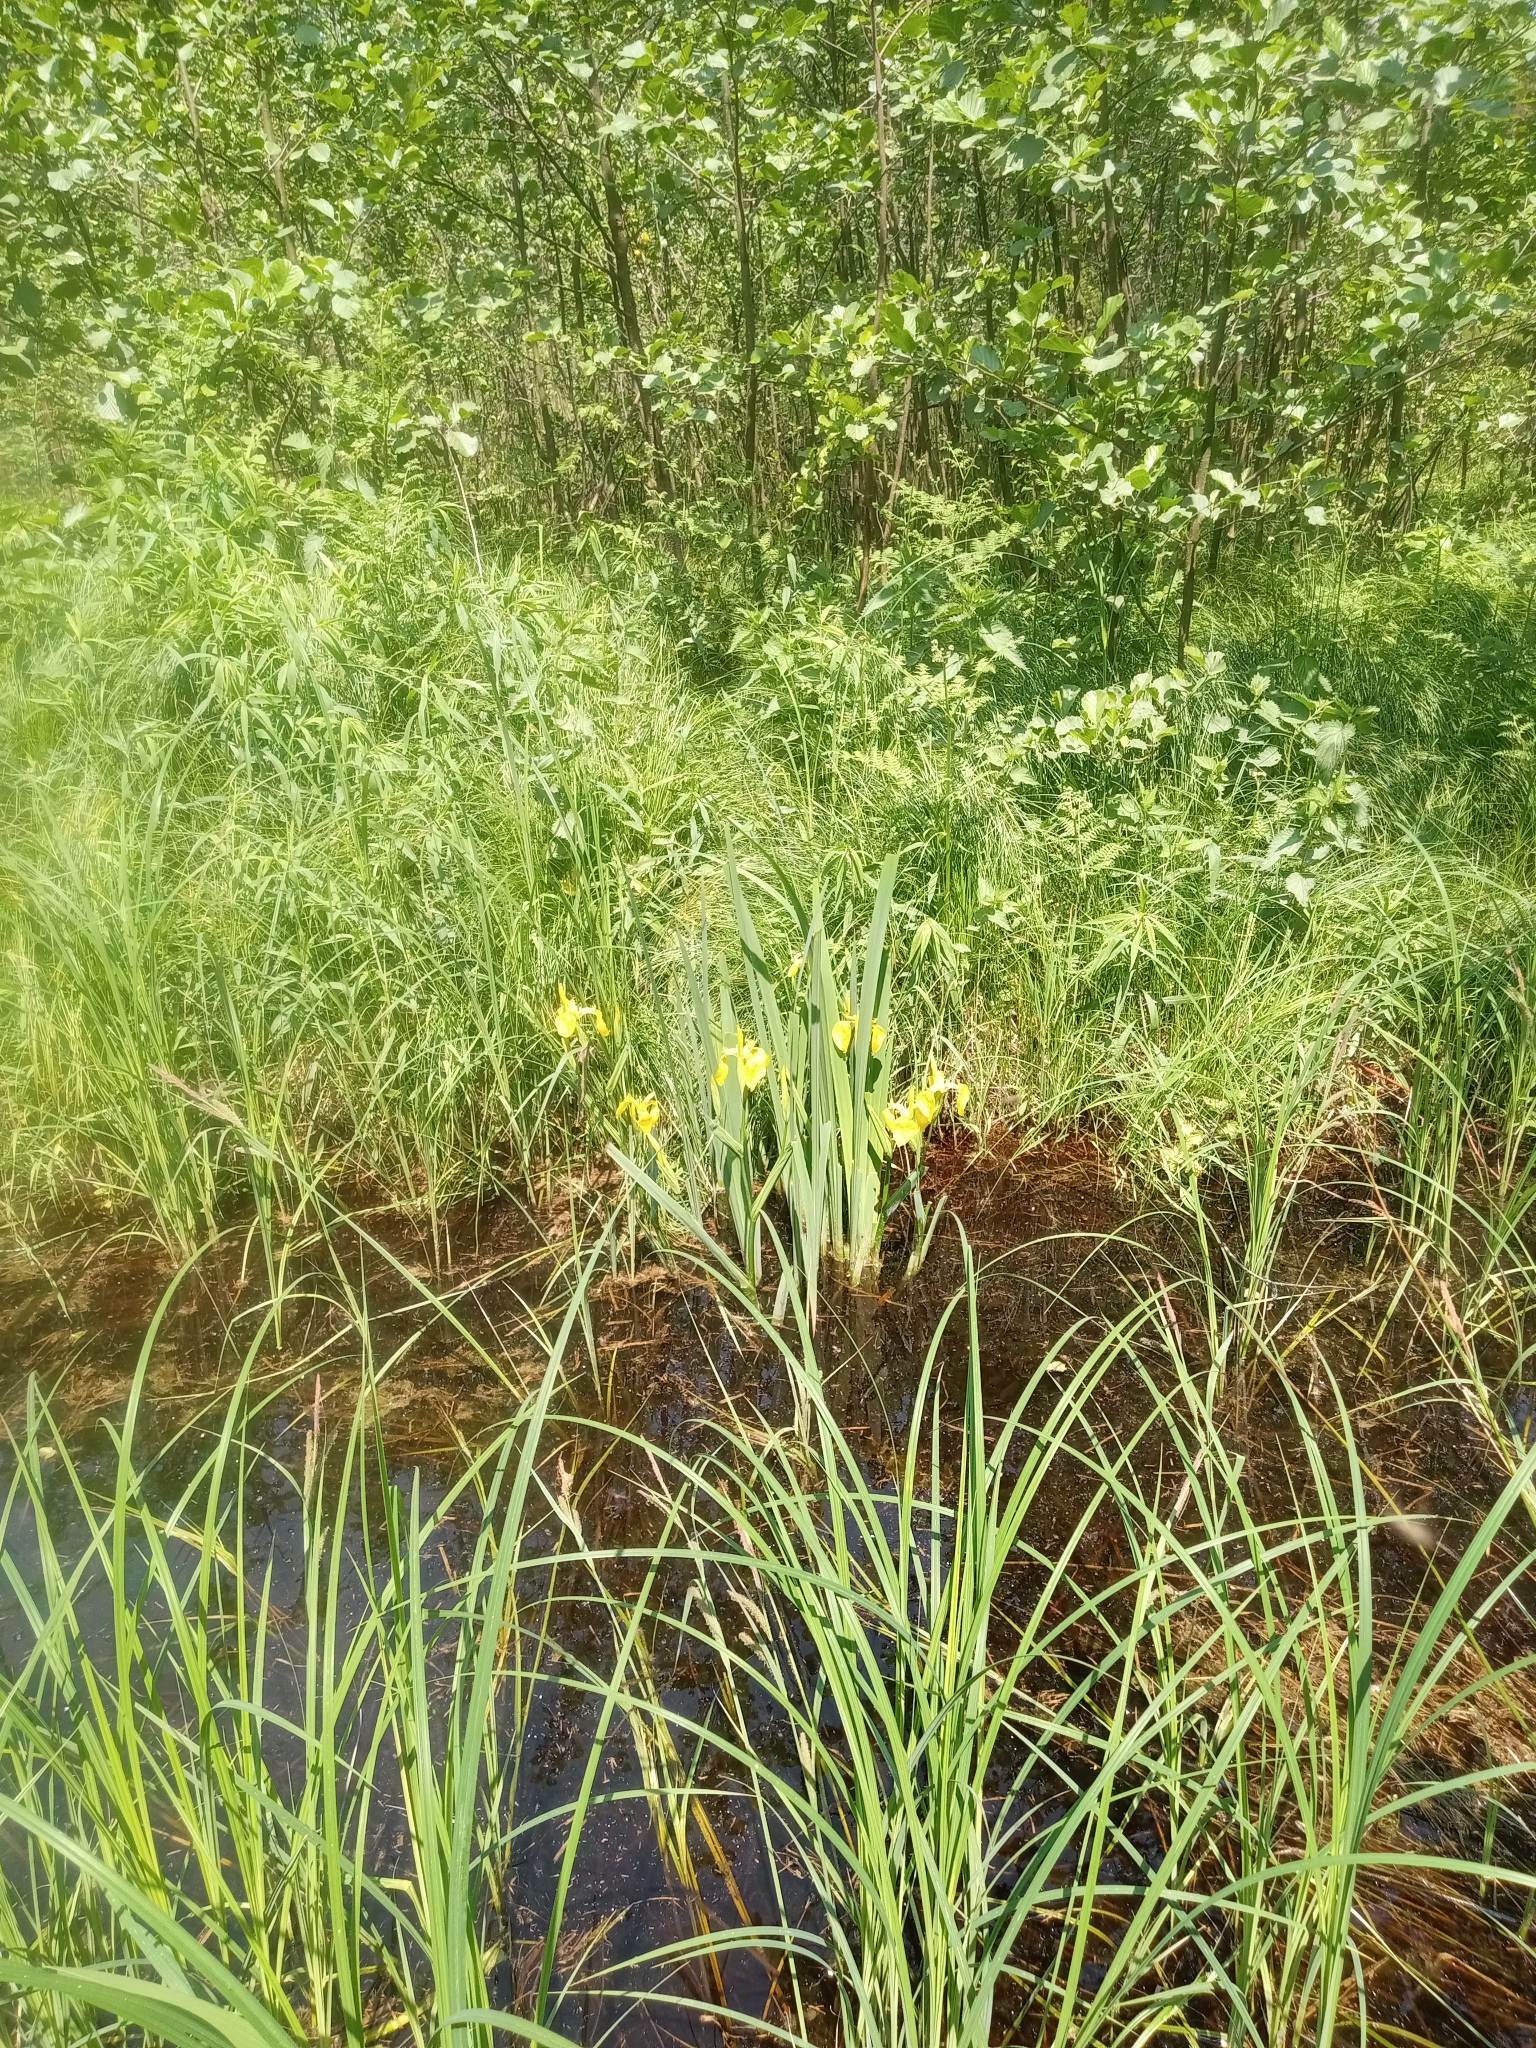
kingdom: Plantae
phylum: Tracheophyta
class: Liliopsida
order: Asparagales
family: Iridaceae
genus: Iris
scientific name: Iris pseudacorus
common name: Yellow flag
